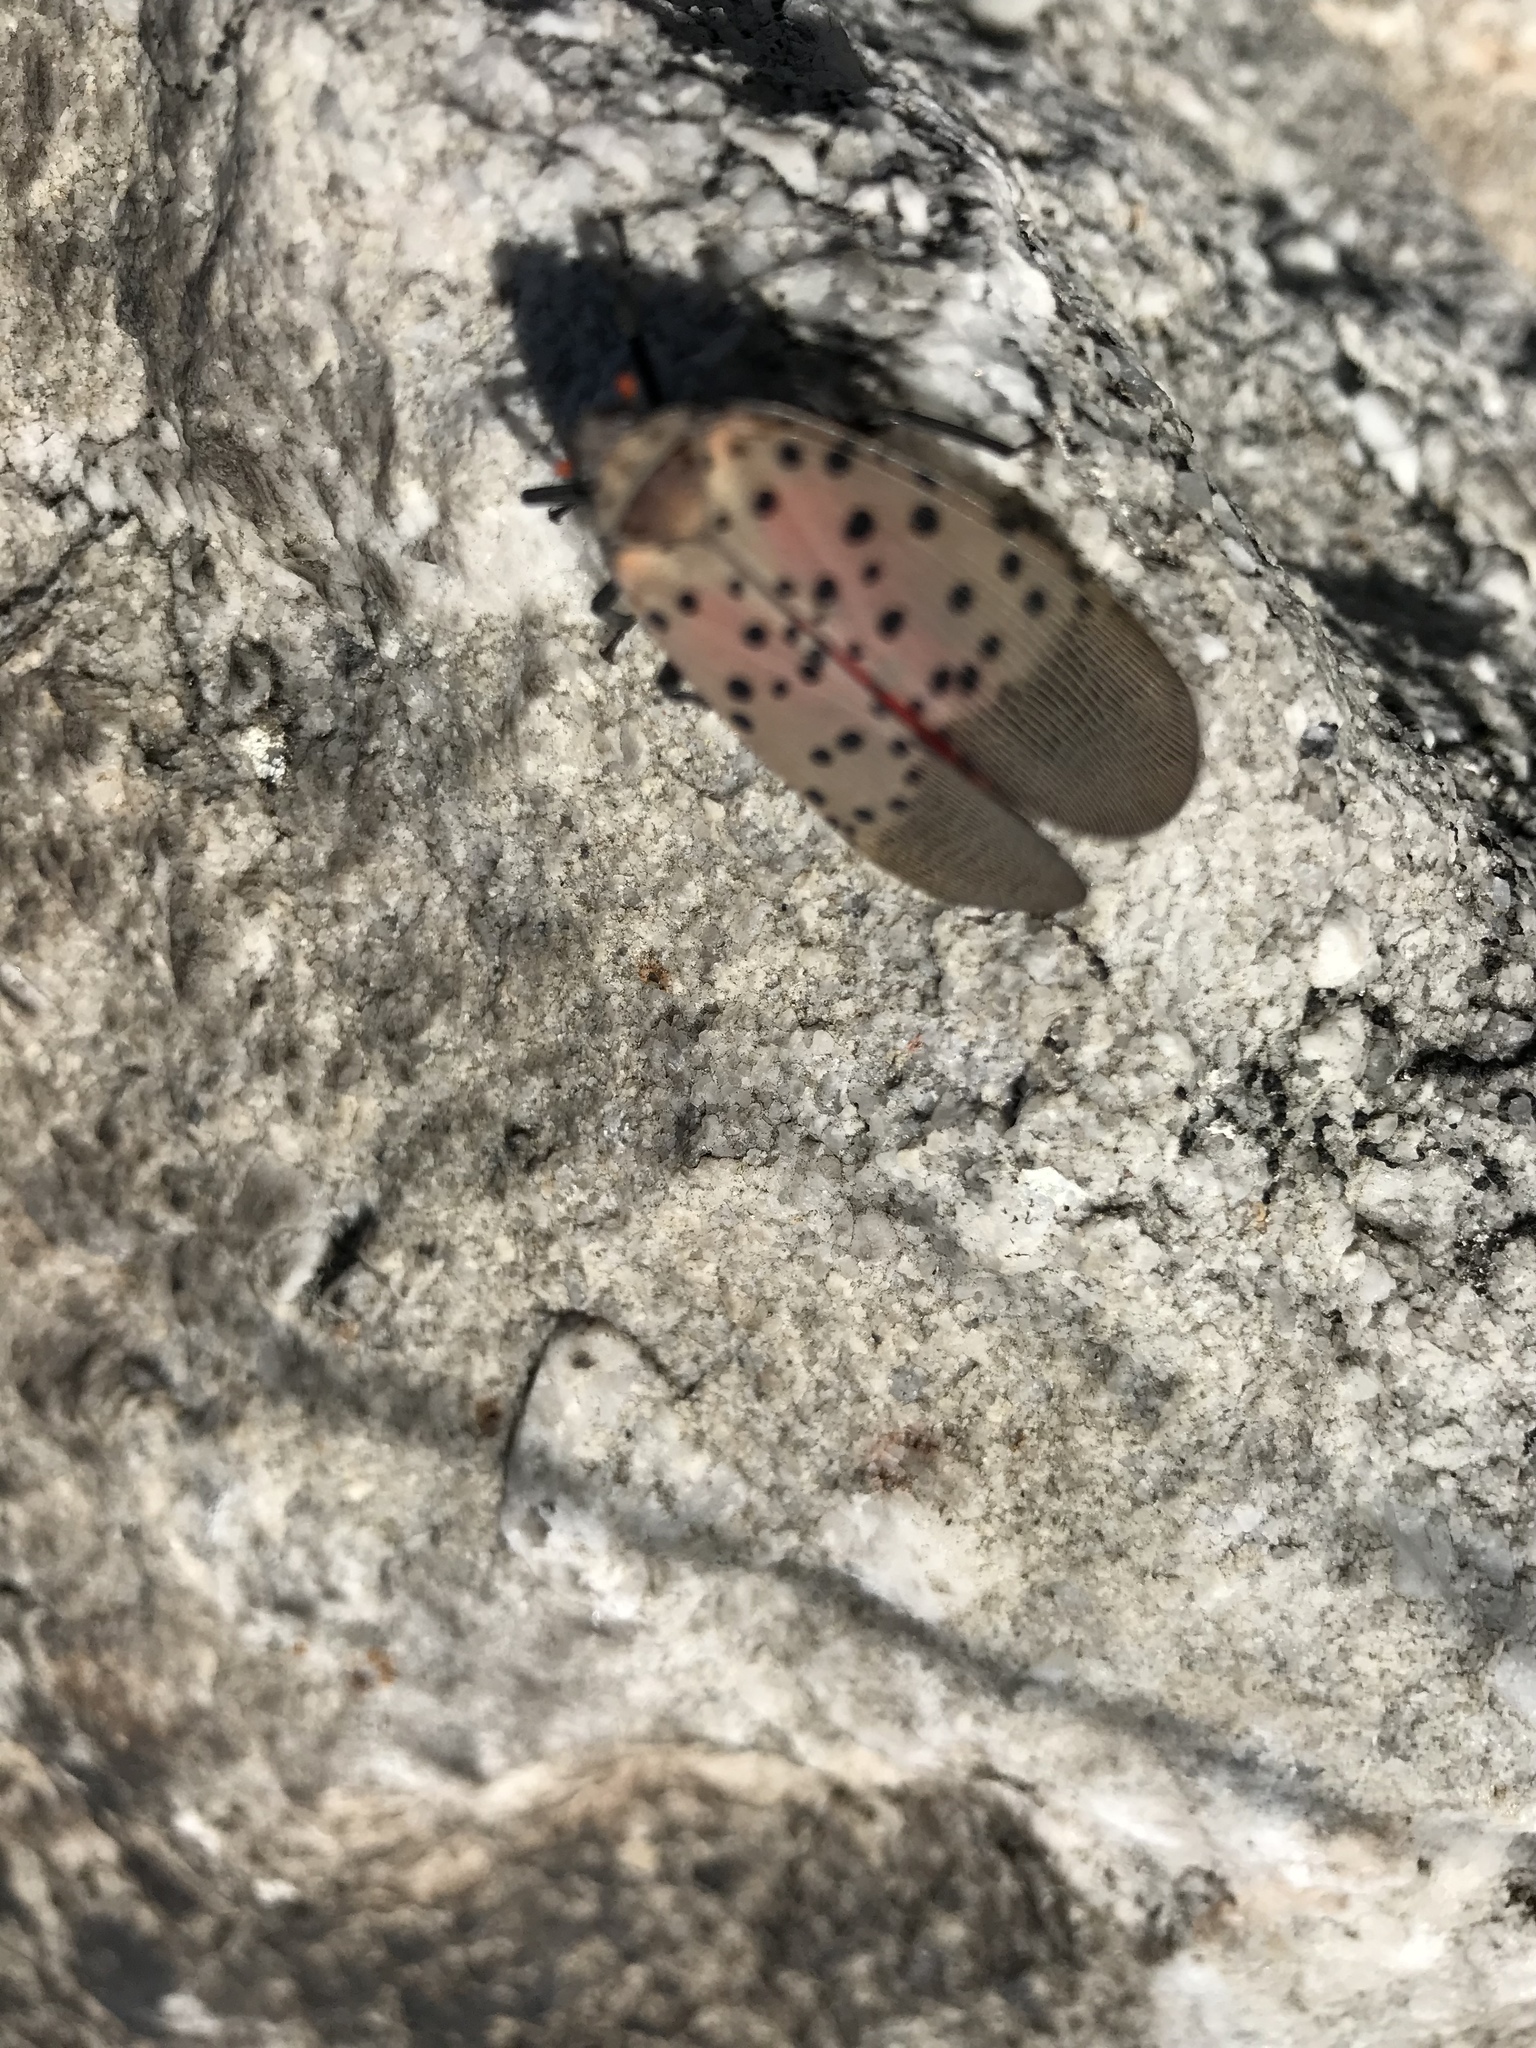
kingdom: Animalia
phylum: Arthropoda
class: Insecta
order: Hemiptera
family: Fulgoridae
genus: Lycorma
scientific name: Lycorma delicatula
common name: Spotted lanternfly
